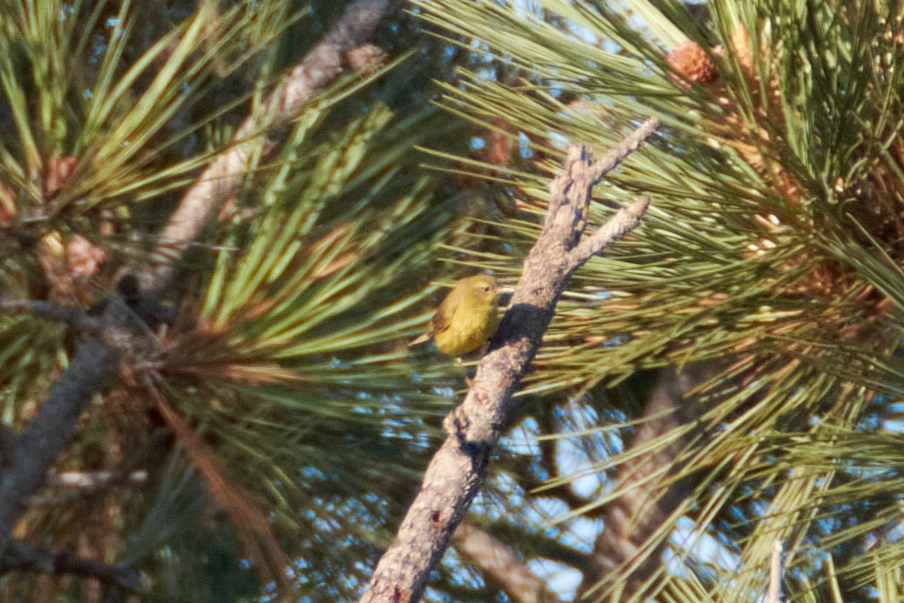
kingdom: Animalia
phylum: Chordata
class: Aves
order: Passeriformes
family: Parulidae
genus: Leiothlypis
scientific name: Leiothlypis celata
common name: Orange-crowned warbler
